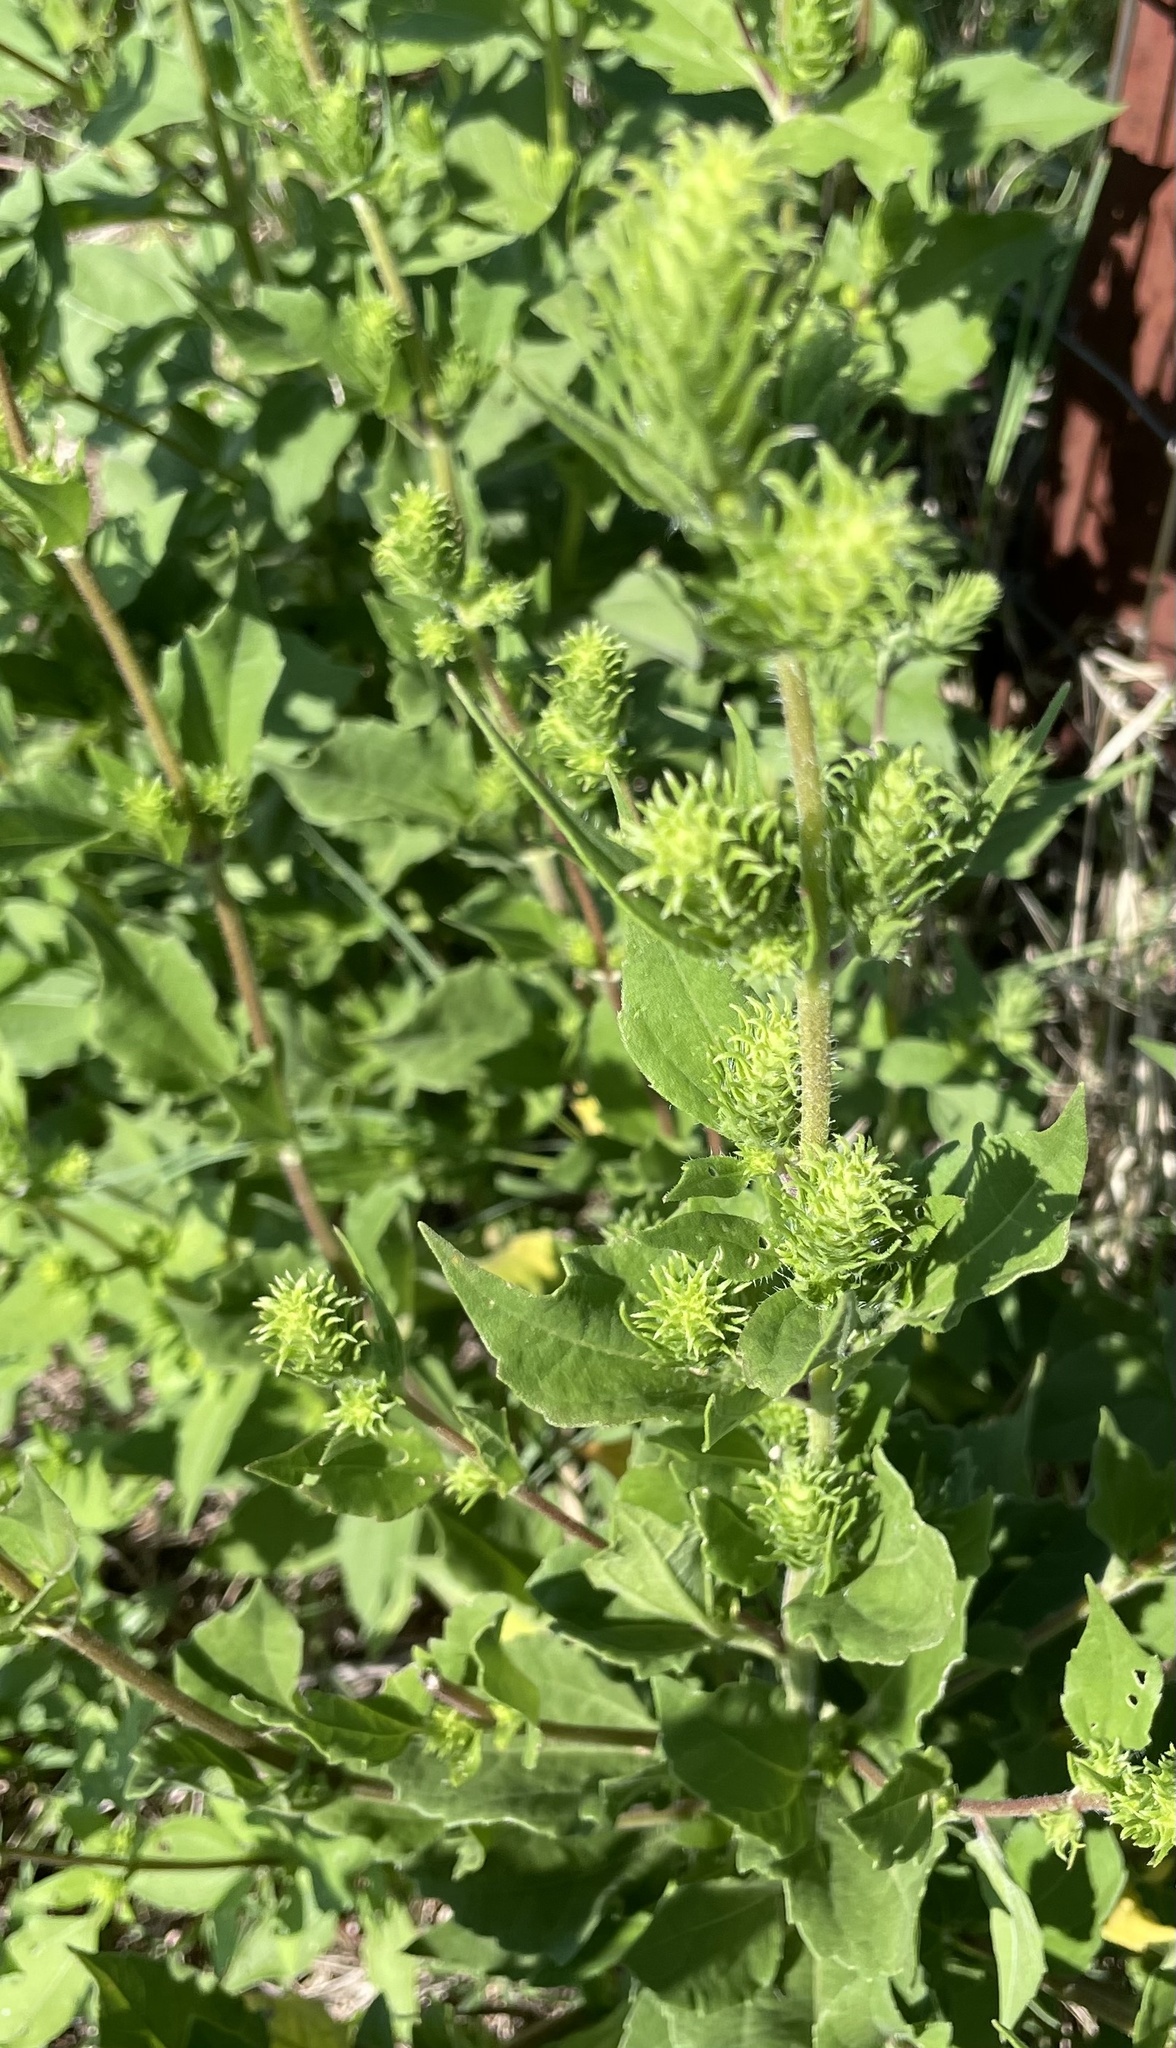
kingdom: Plantae
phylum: Tracheophyta
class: Magnoliopsida
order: Asterales
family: Asteraceae
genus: Iva
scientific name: Iva annua
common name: Marsh-elder
